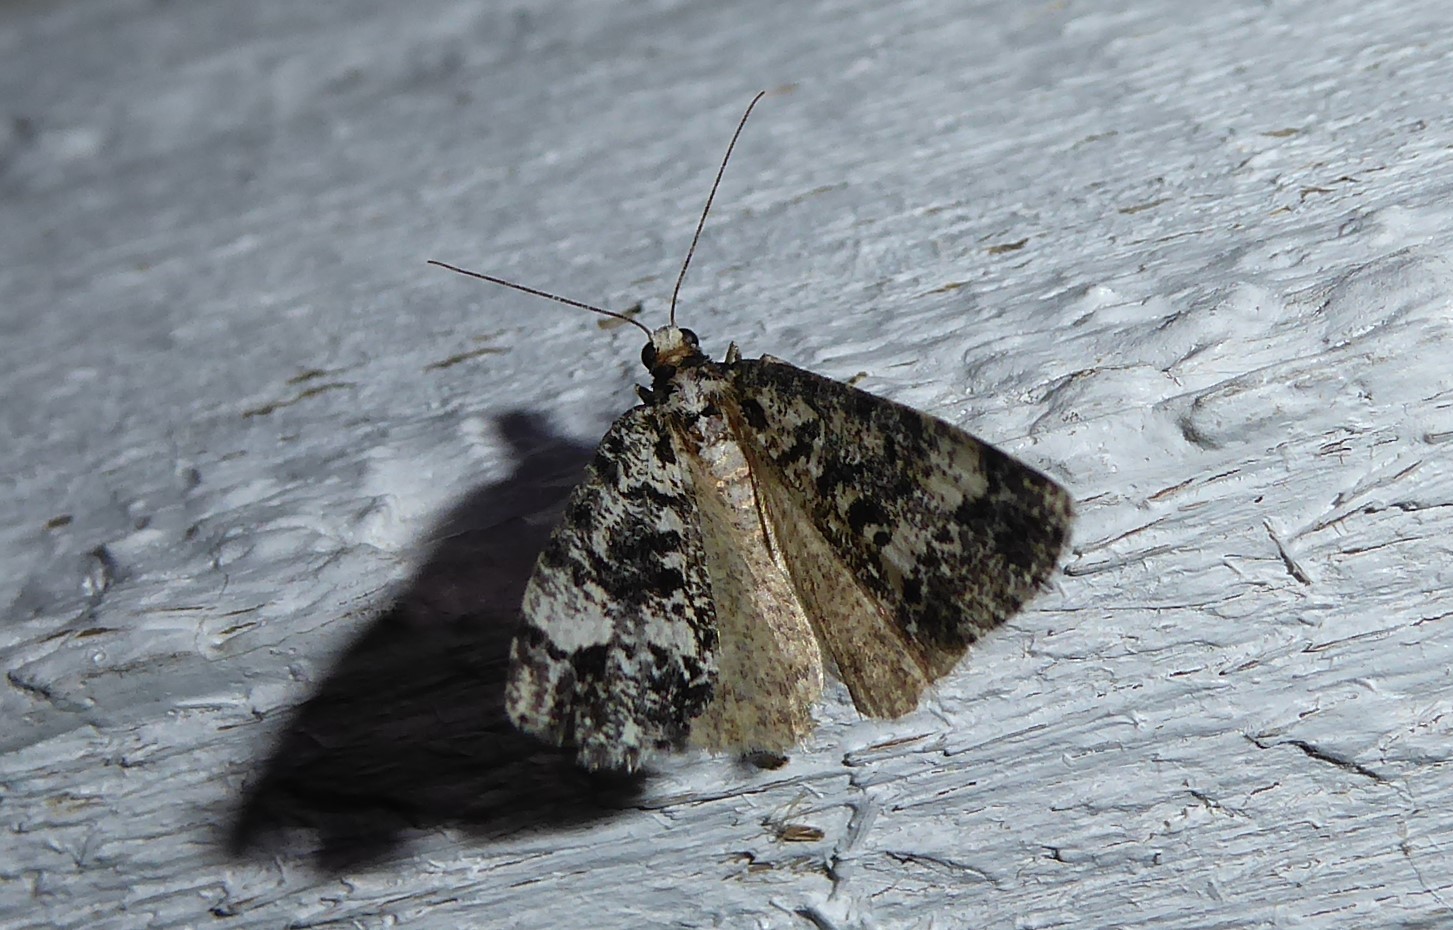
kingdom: Animalia
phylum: Arthropoda
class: Insecta
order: Lepidoptera
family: Geometridae
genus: Pseudocoremia
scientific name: Pseudocoremia leucelaea
